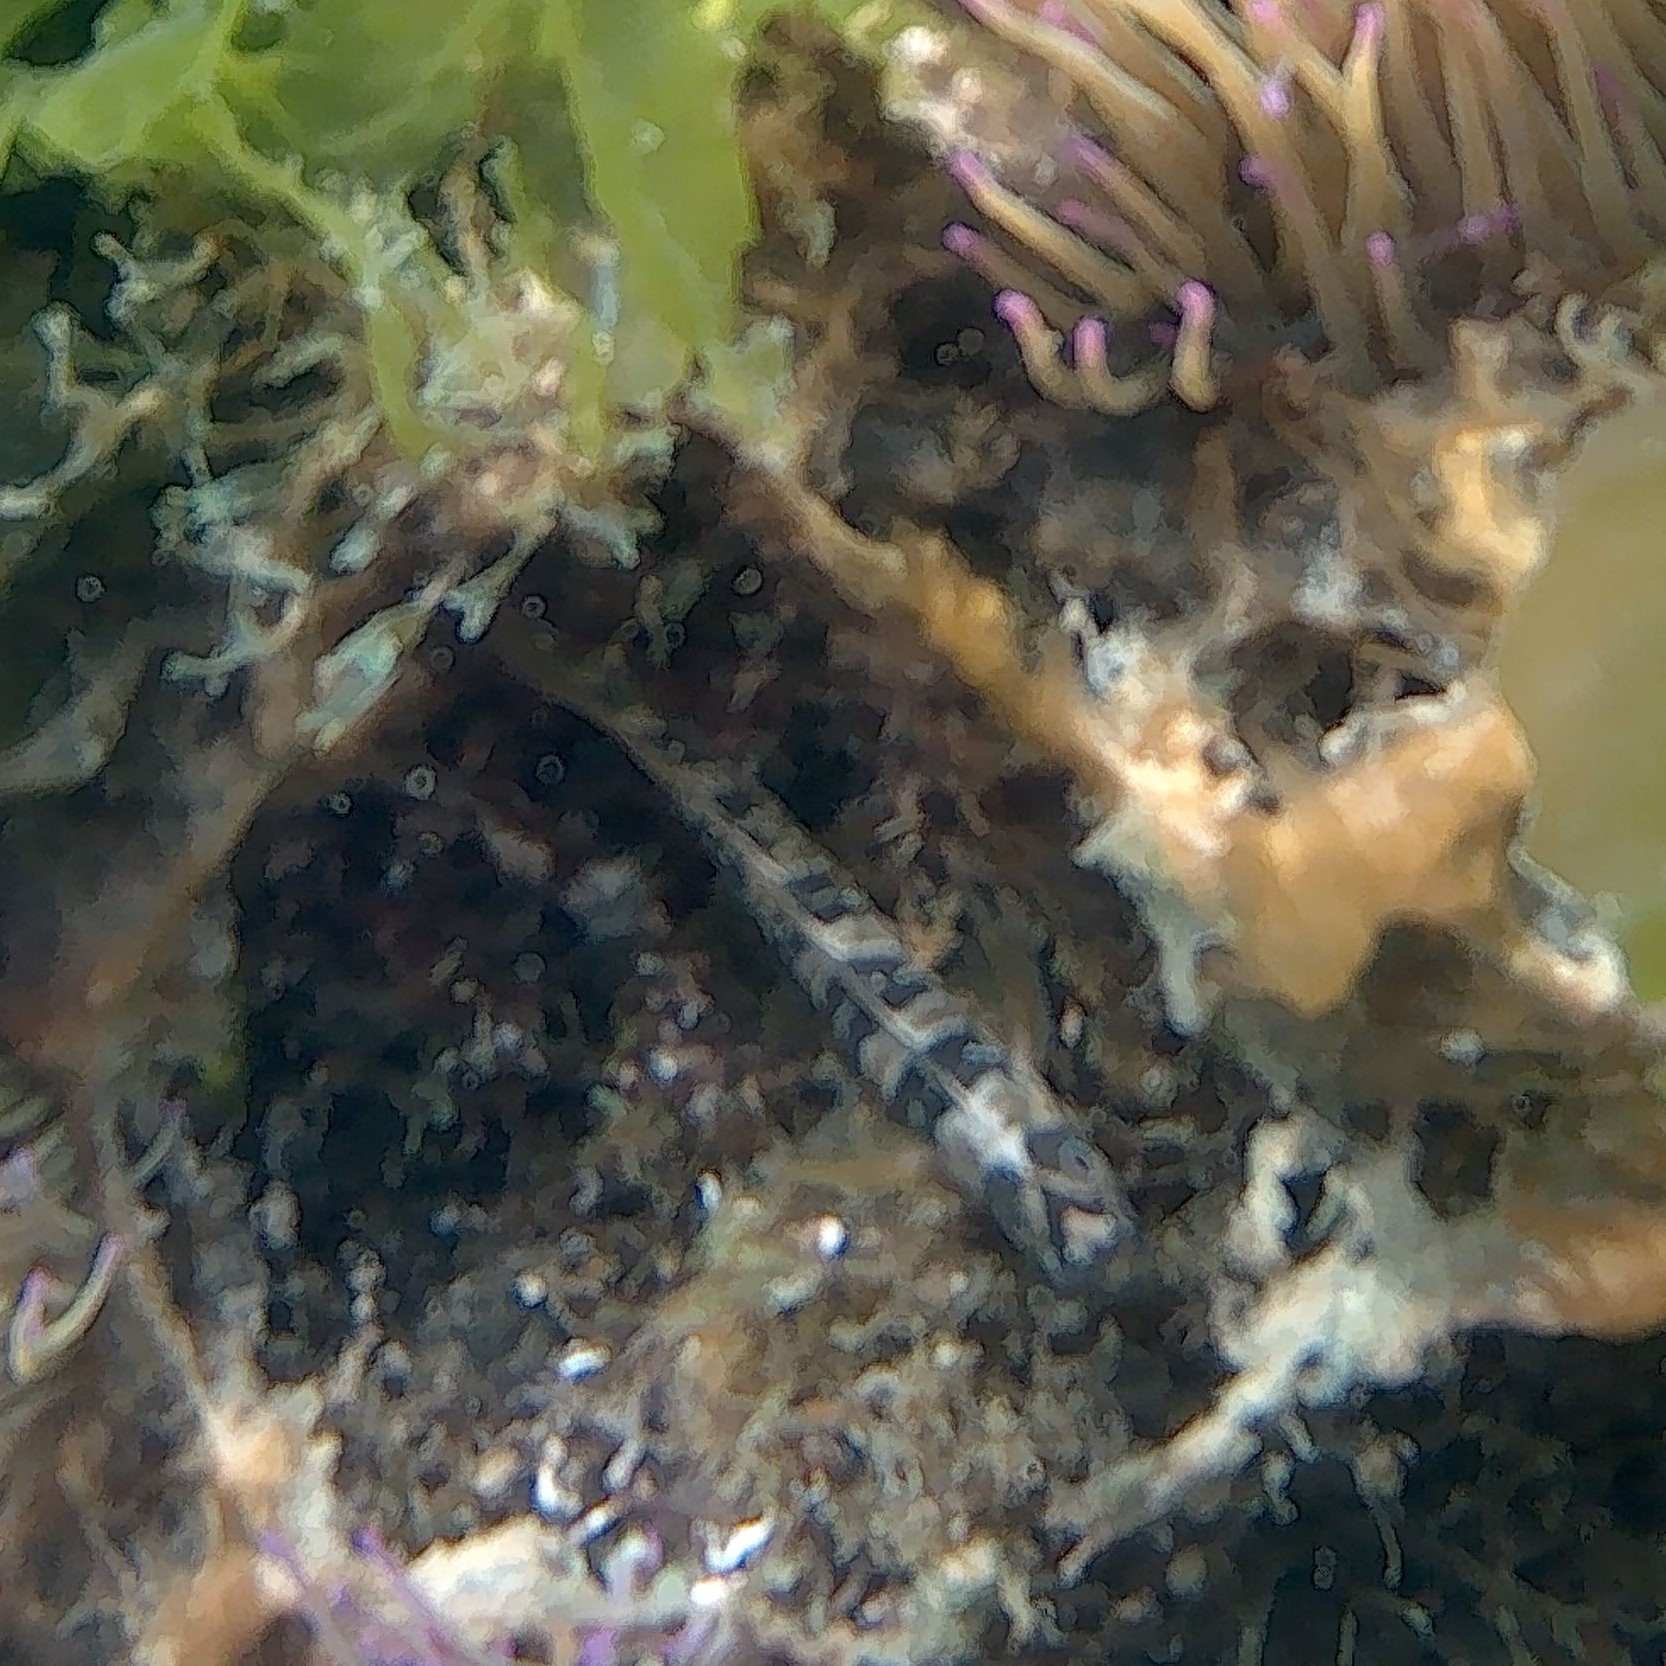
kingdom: Animalia
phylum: Chordata
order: Perciformes
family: Blenniidae
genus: Salaria
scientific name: Salaria pavo
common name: Peacock blenny
